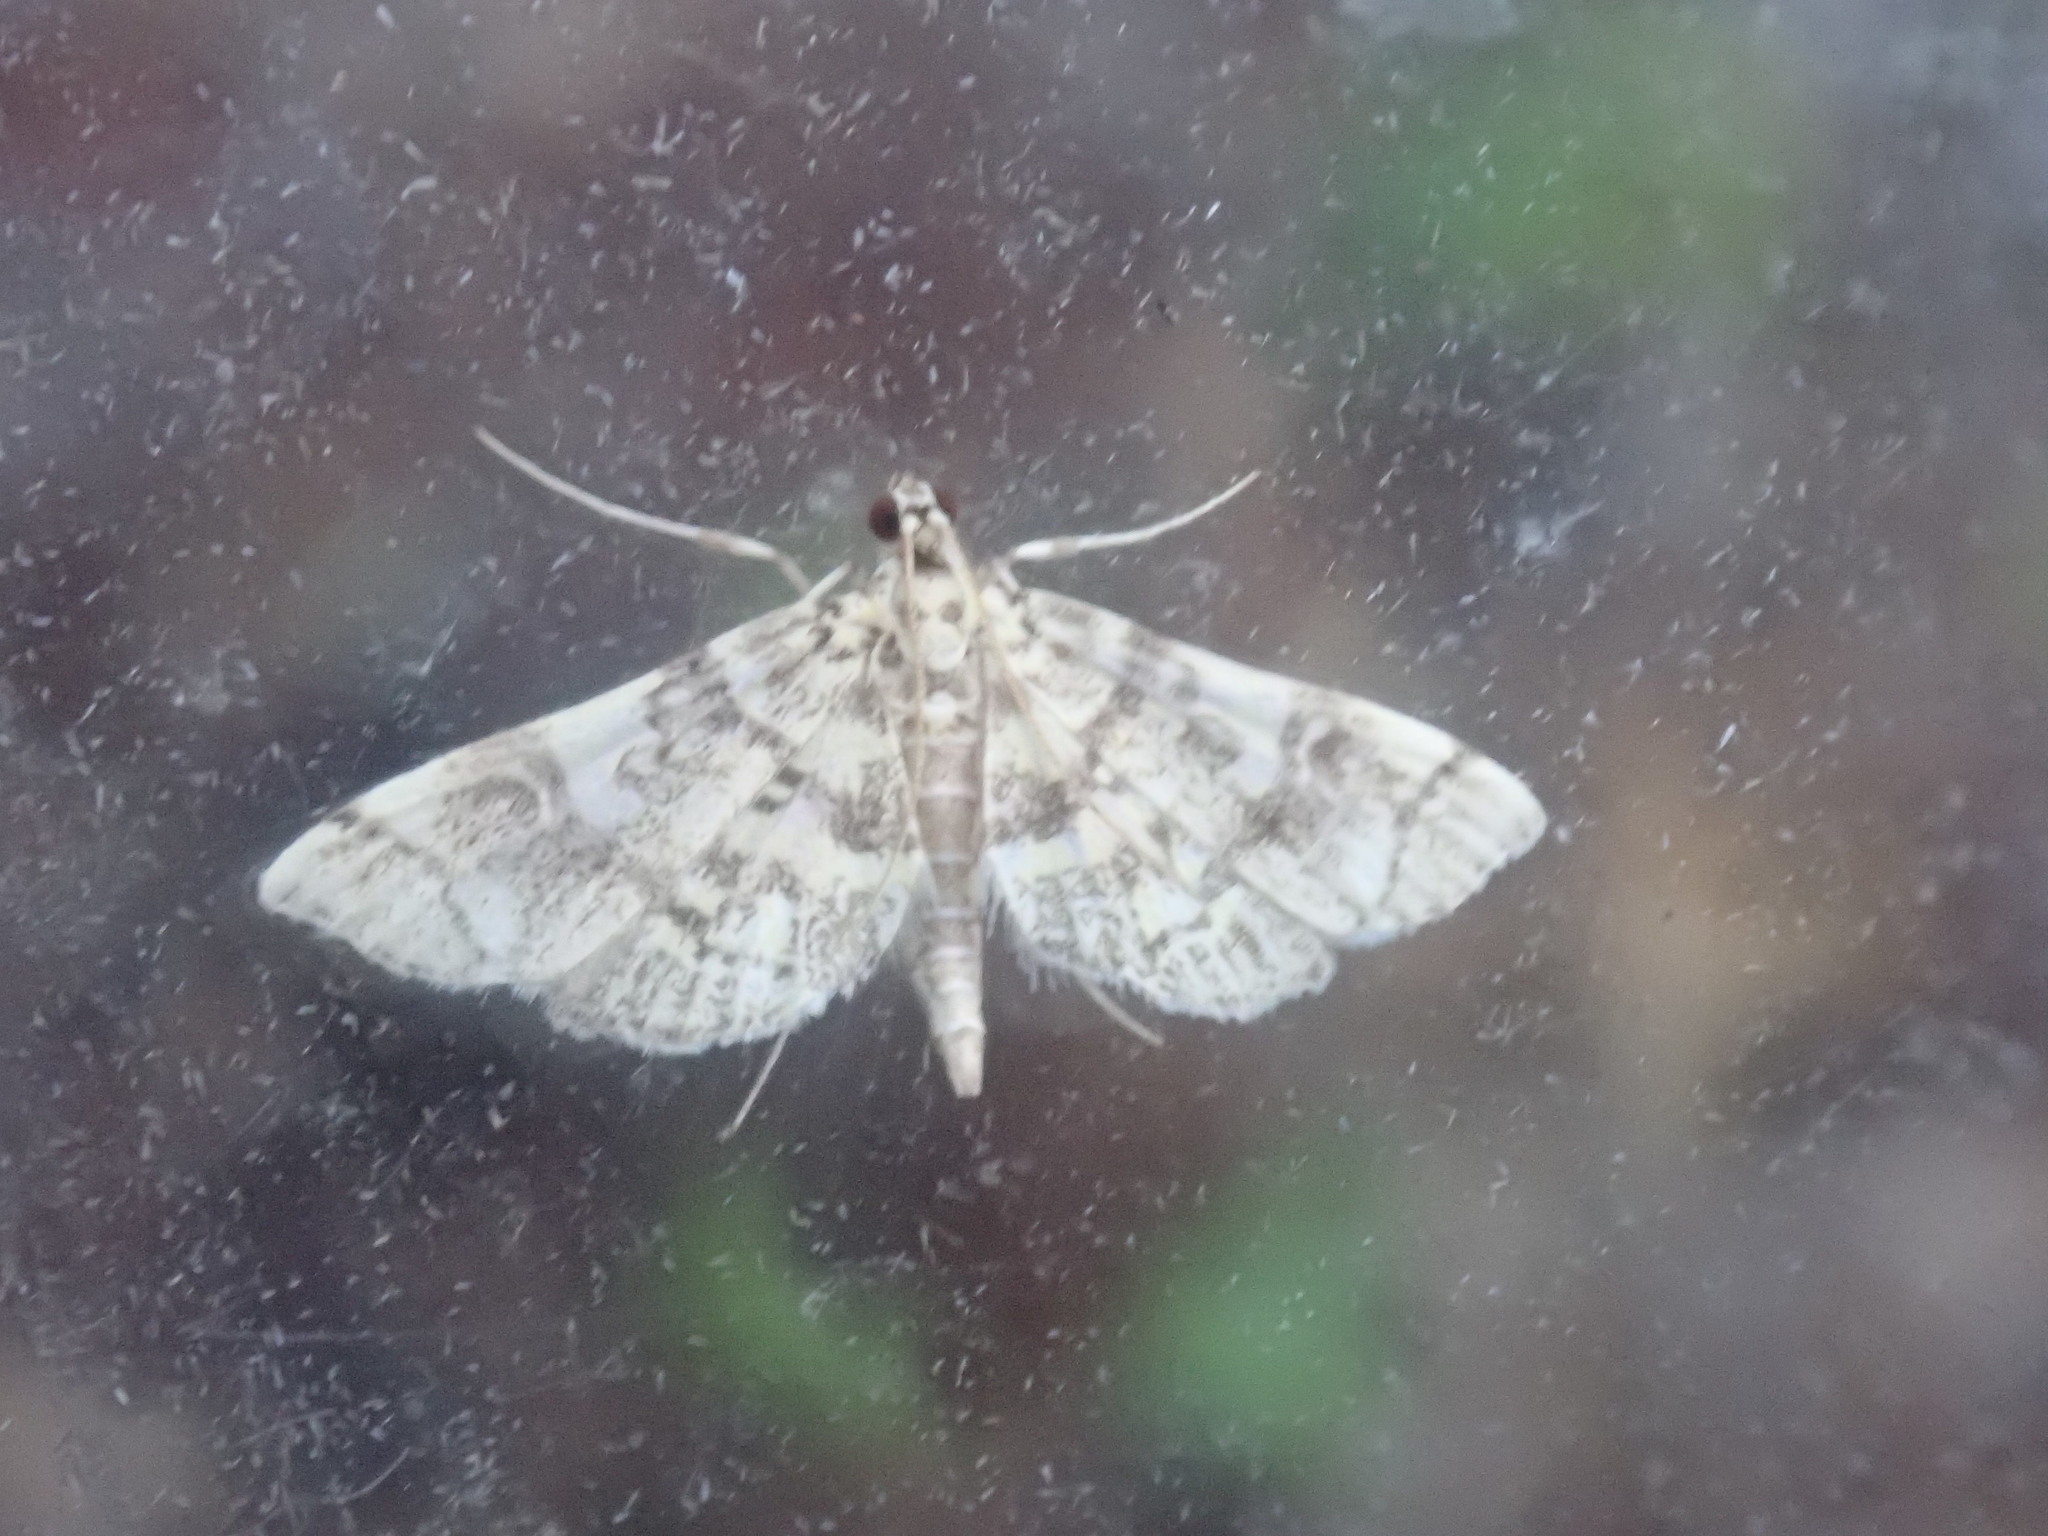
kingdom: Animalia
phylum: Arthropoda
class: Insecta
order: Lepidoptera
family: Crambidae
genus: Apogeshna
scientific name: Apogeshna stenialis
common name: Checkered apogeshna moth
